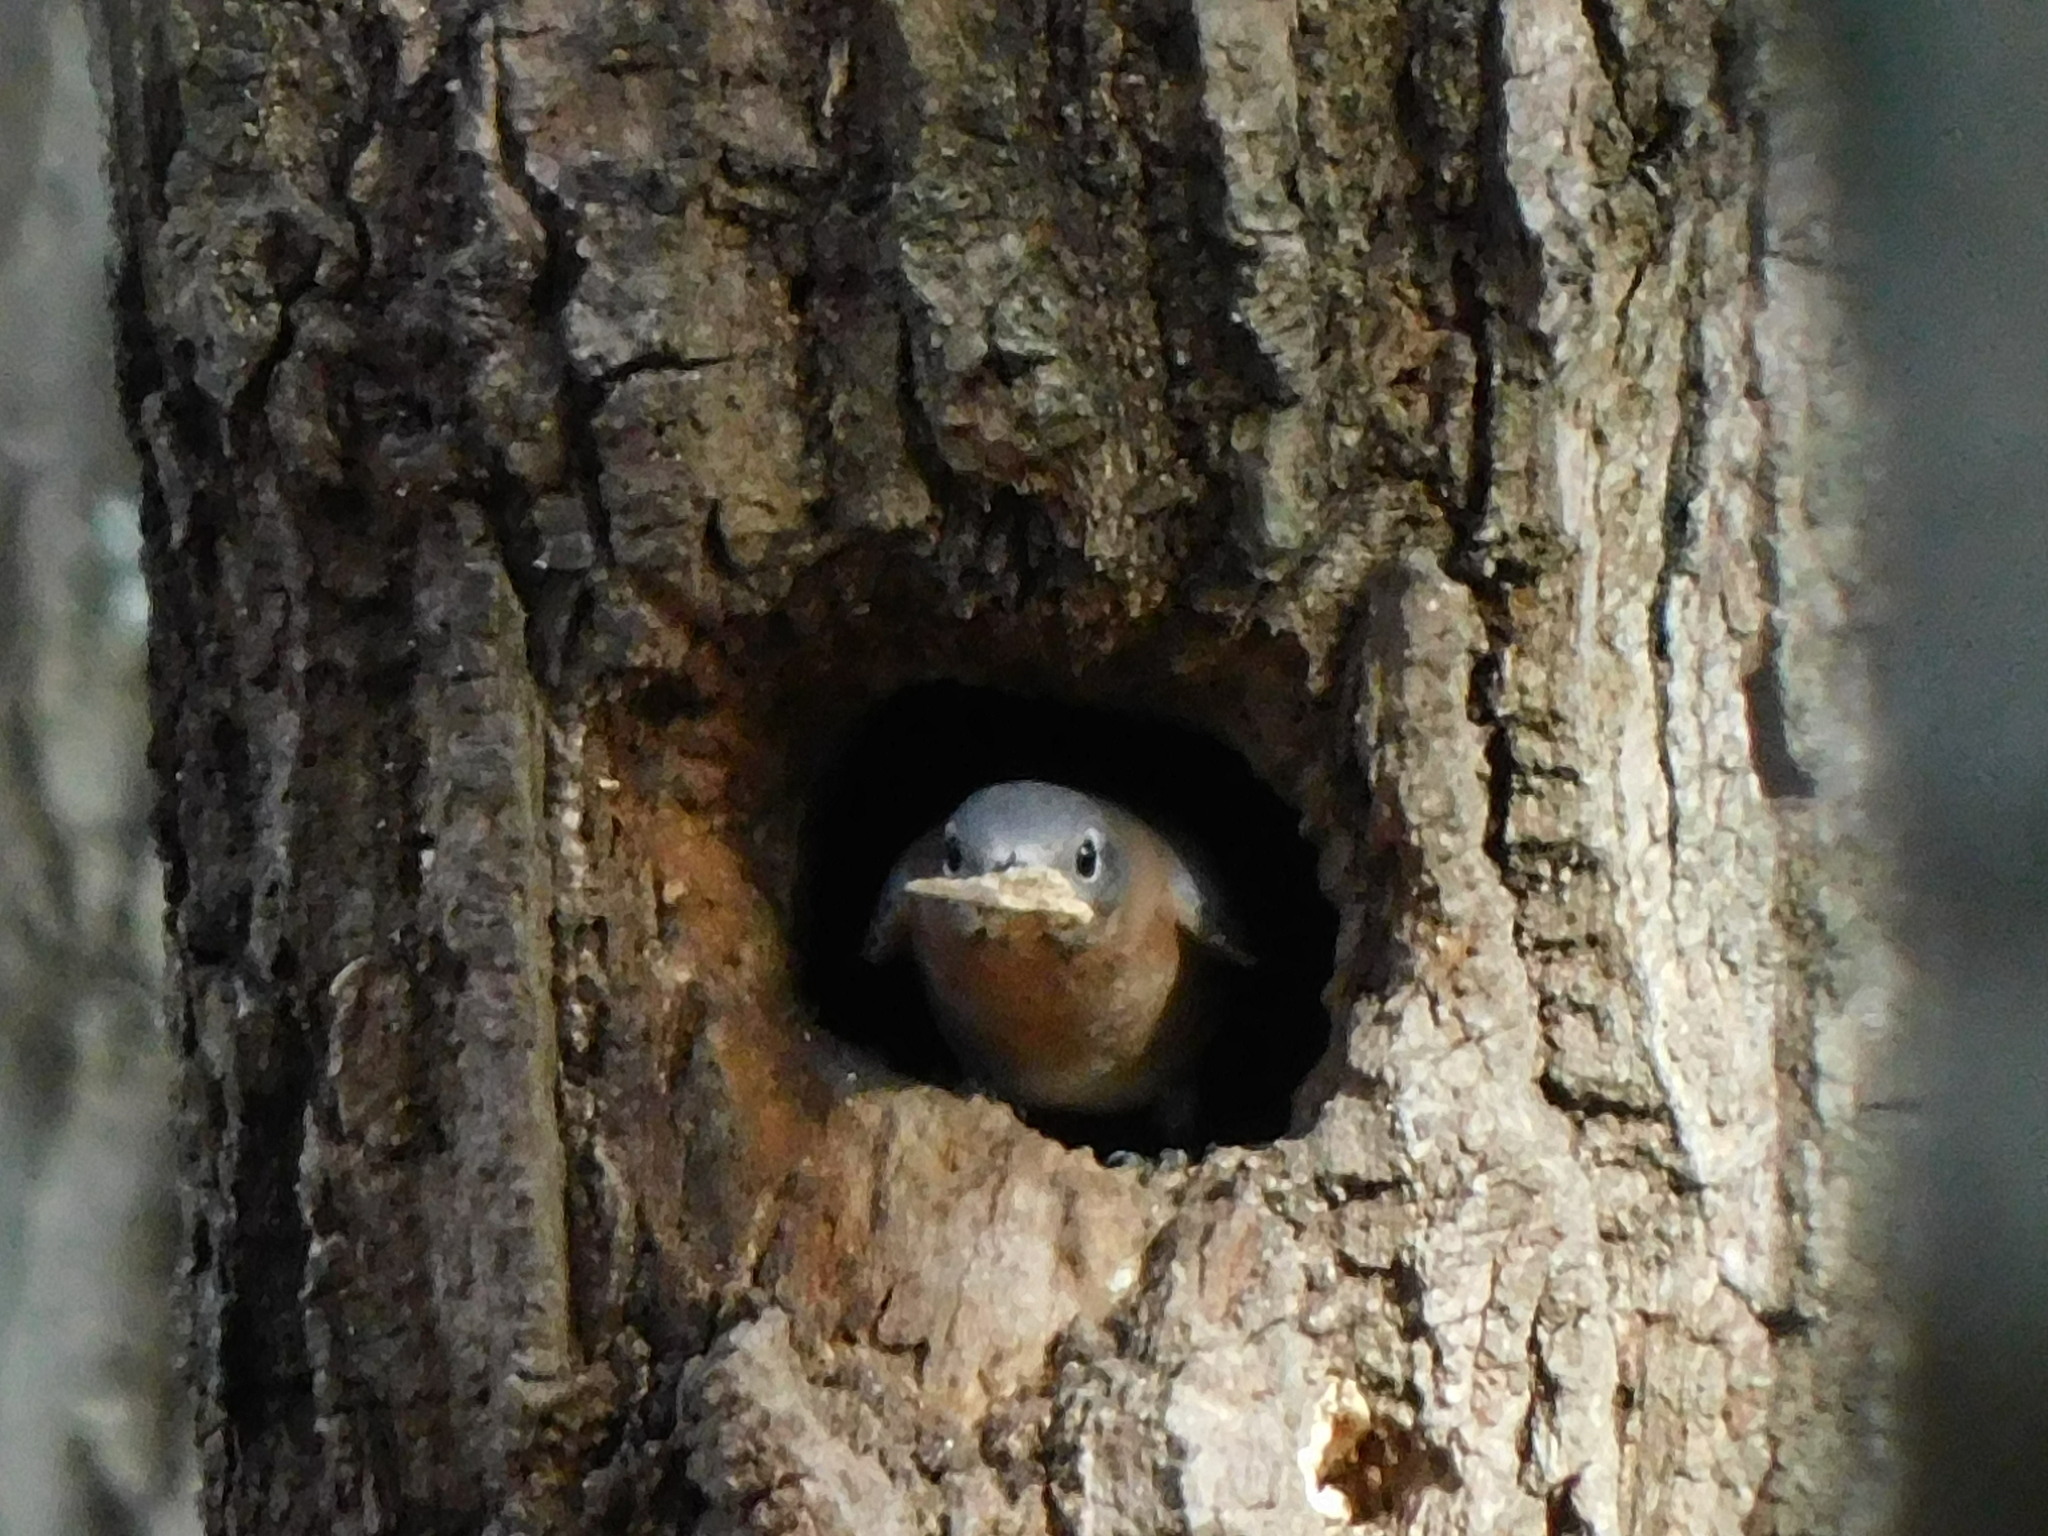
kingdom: Animalia
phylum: Chordata
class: Aves
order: Passeriformes
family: Turdidae
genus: Sialia
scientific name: Sialia sialis
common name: Eastern bluebird
